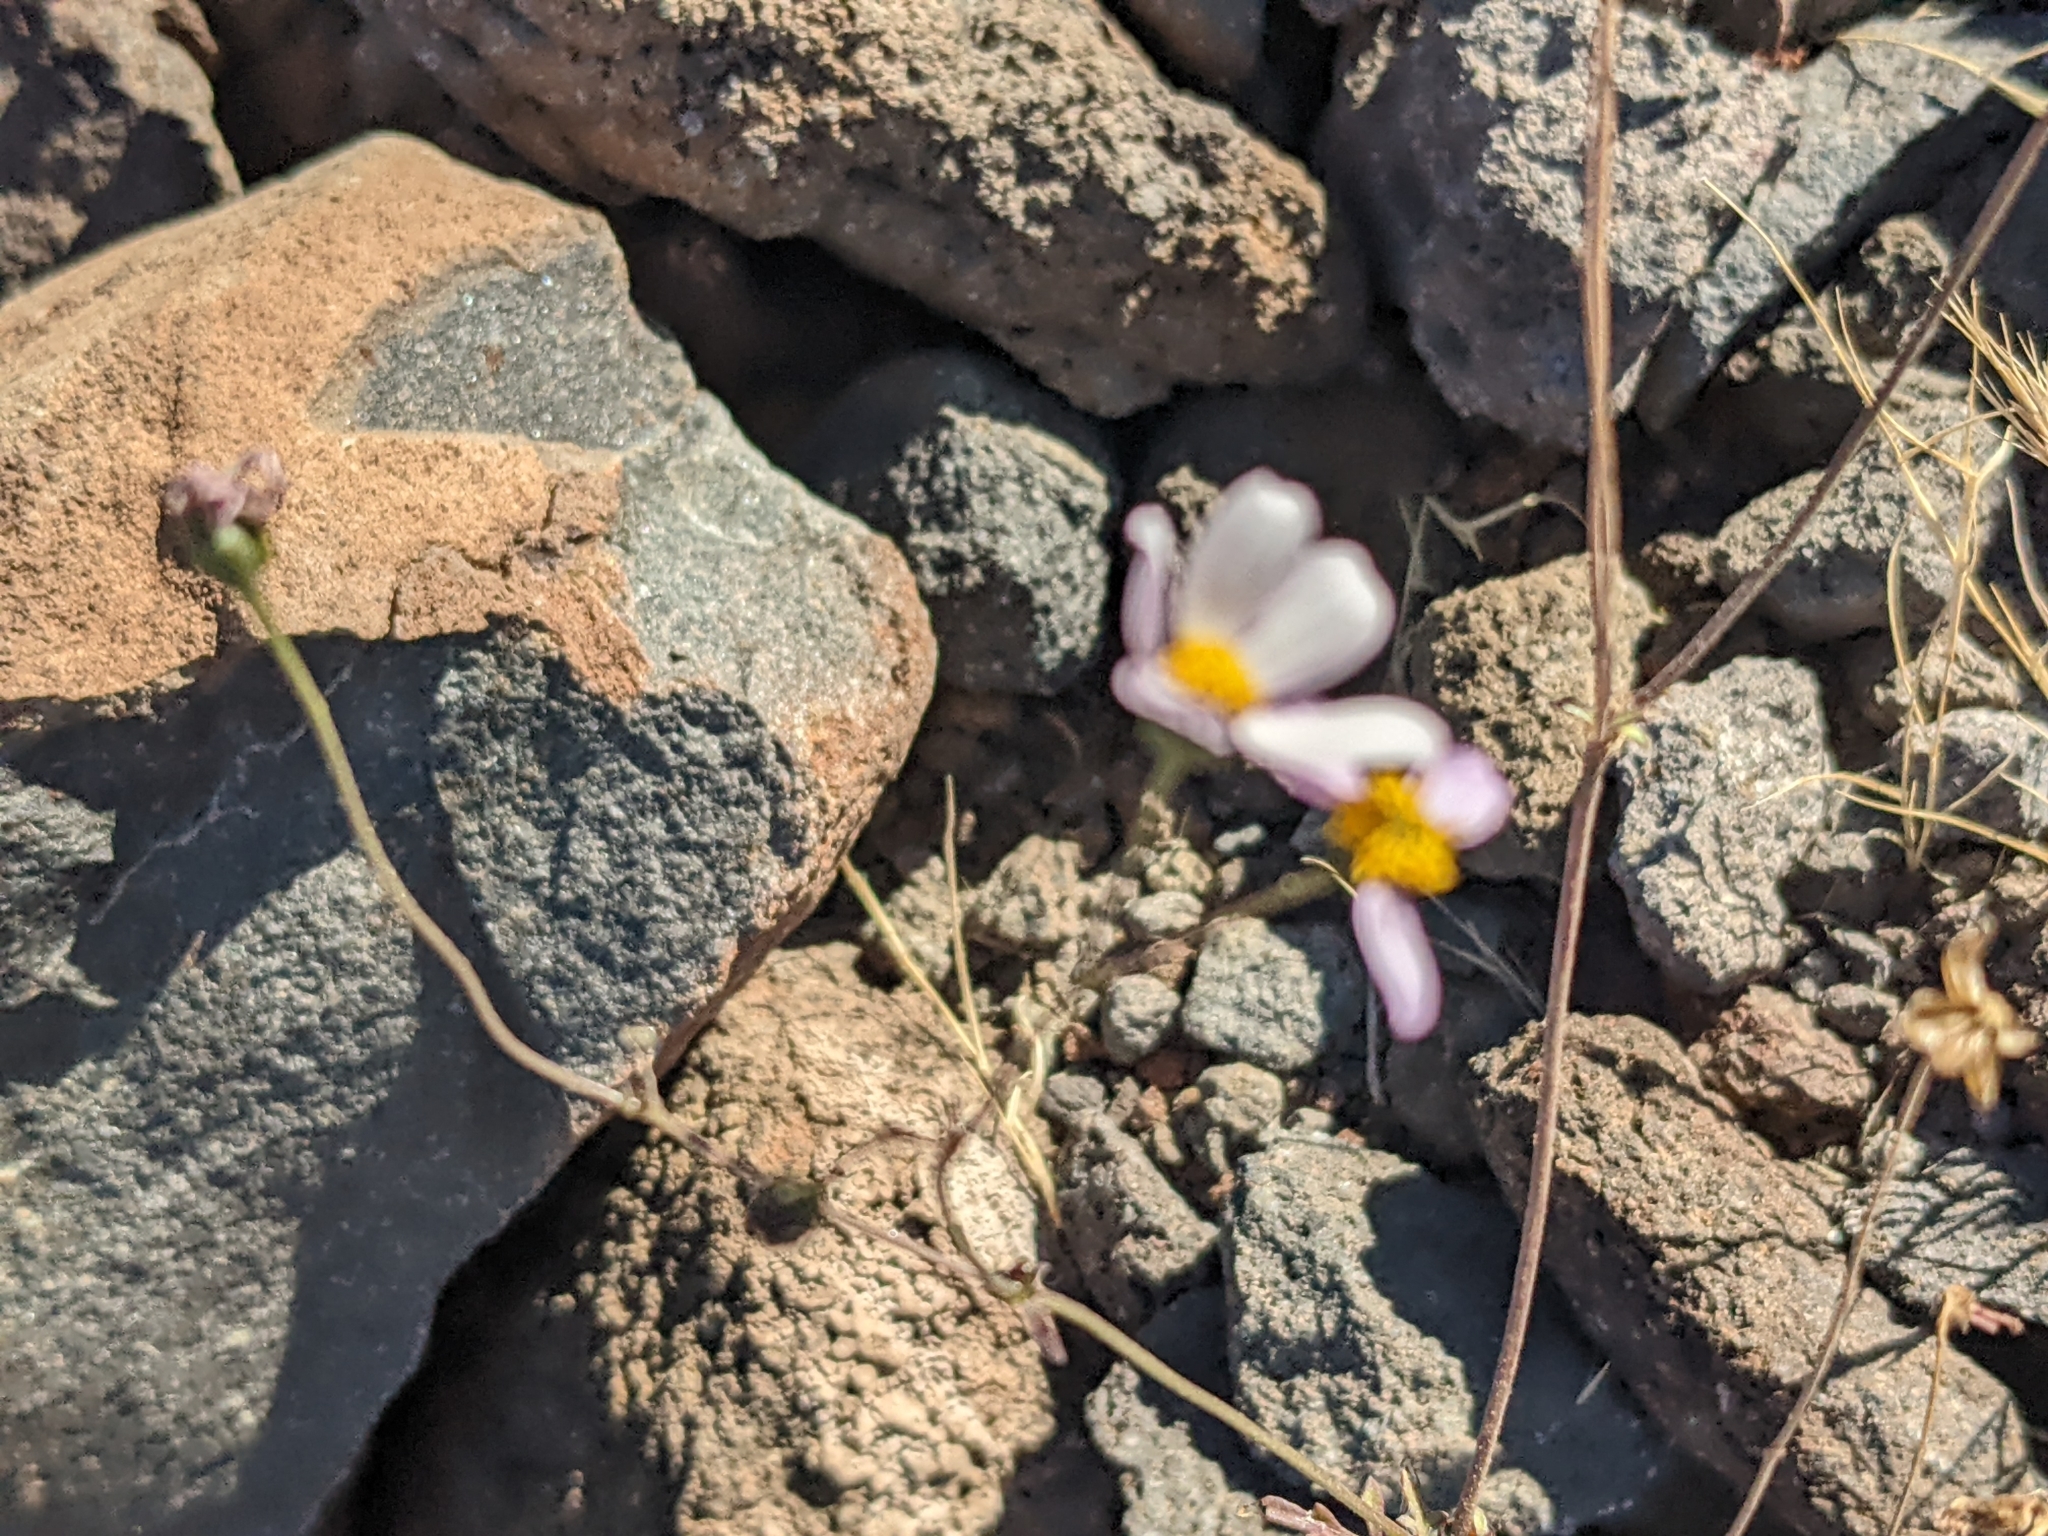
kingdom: Plantae
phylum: Tracheophyta
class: Magnoliopsida
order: Asterales
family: Asteraceae
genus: Coreocarpus
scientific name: Coreocarpus parthenioides
